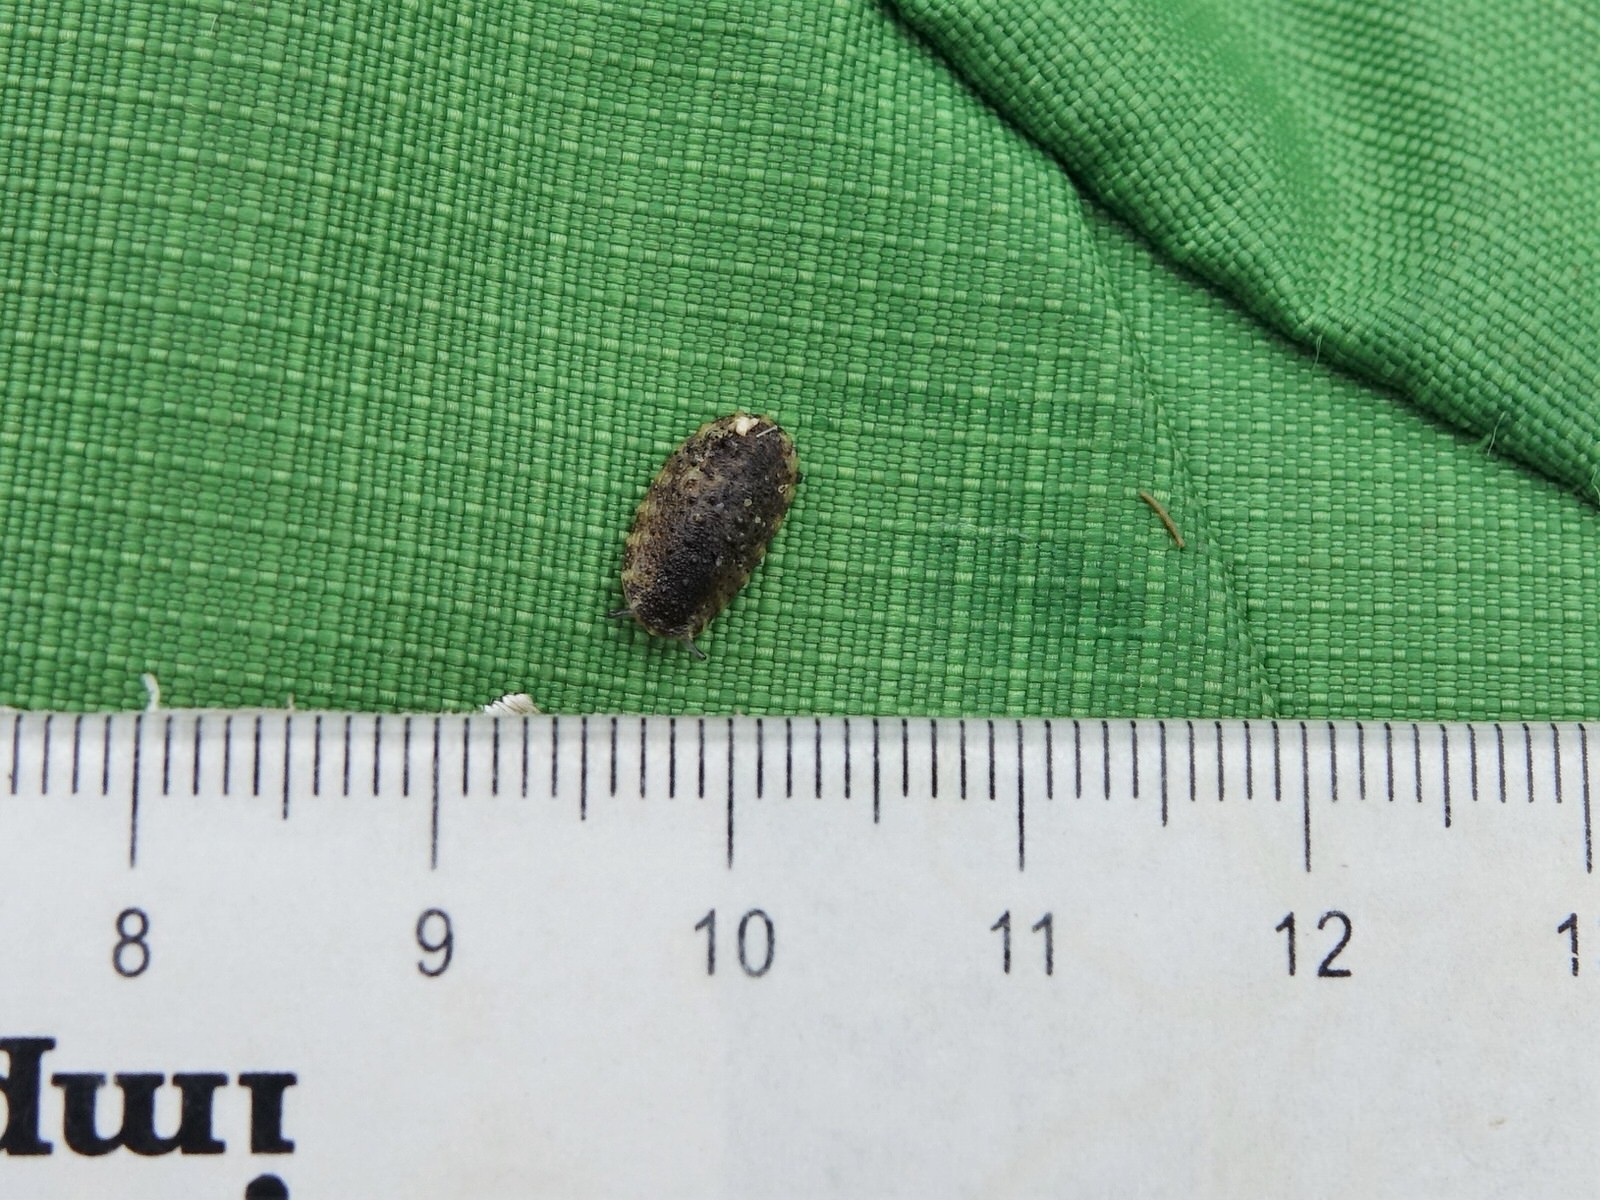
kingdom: Animalia
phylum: Mollusca
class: Gastropoda
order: Systellommatophora
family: Onchidiidae
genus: Onchidella
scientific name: Onchidella nigricans
